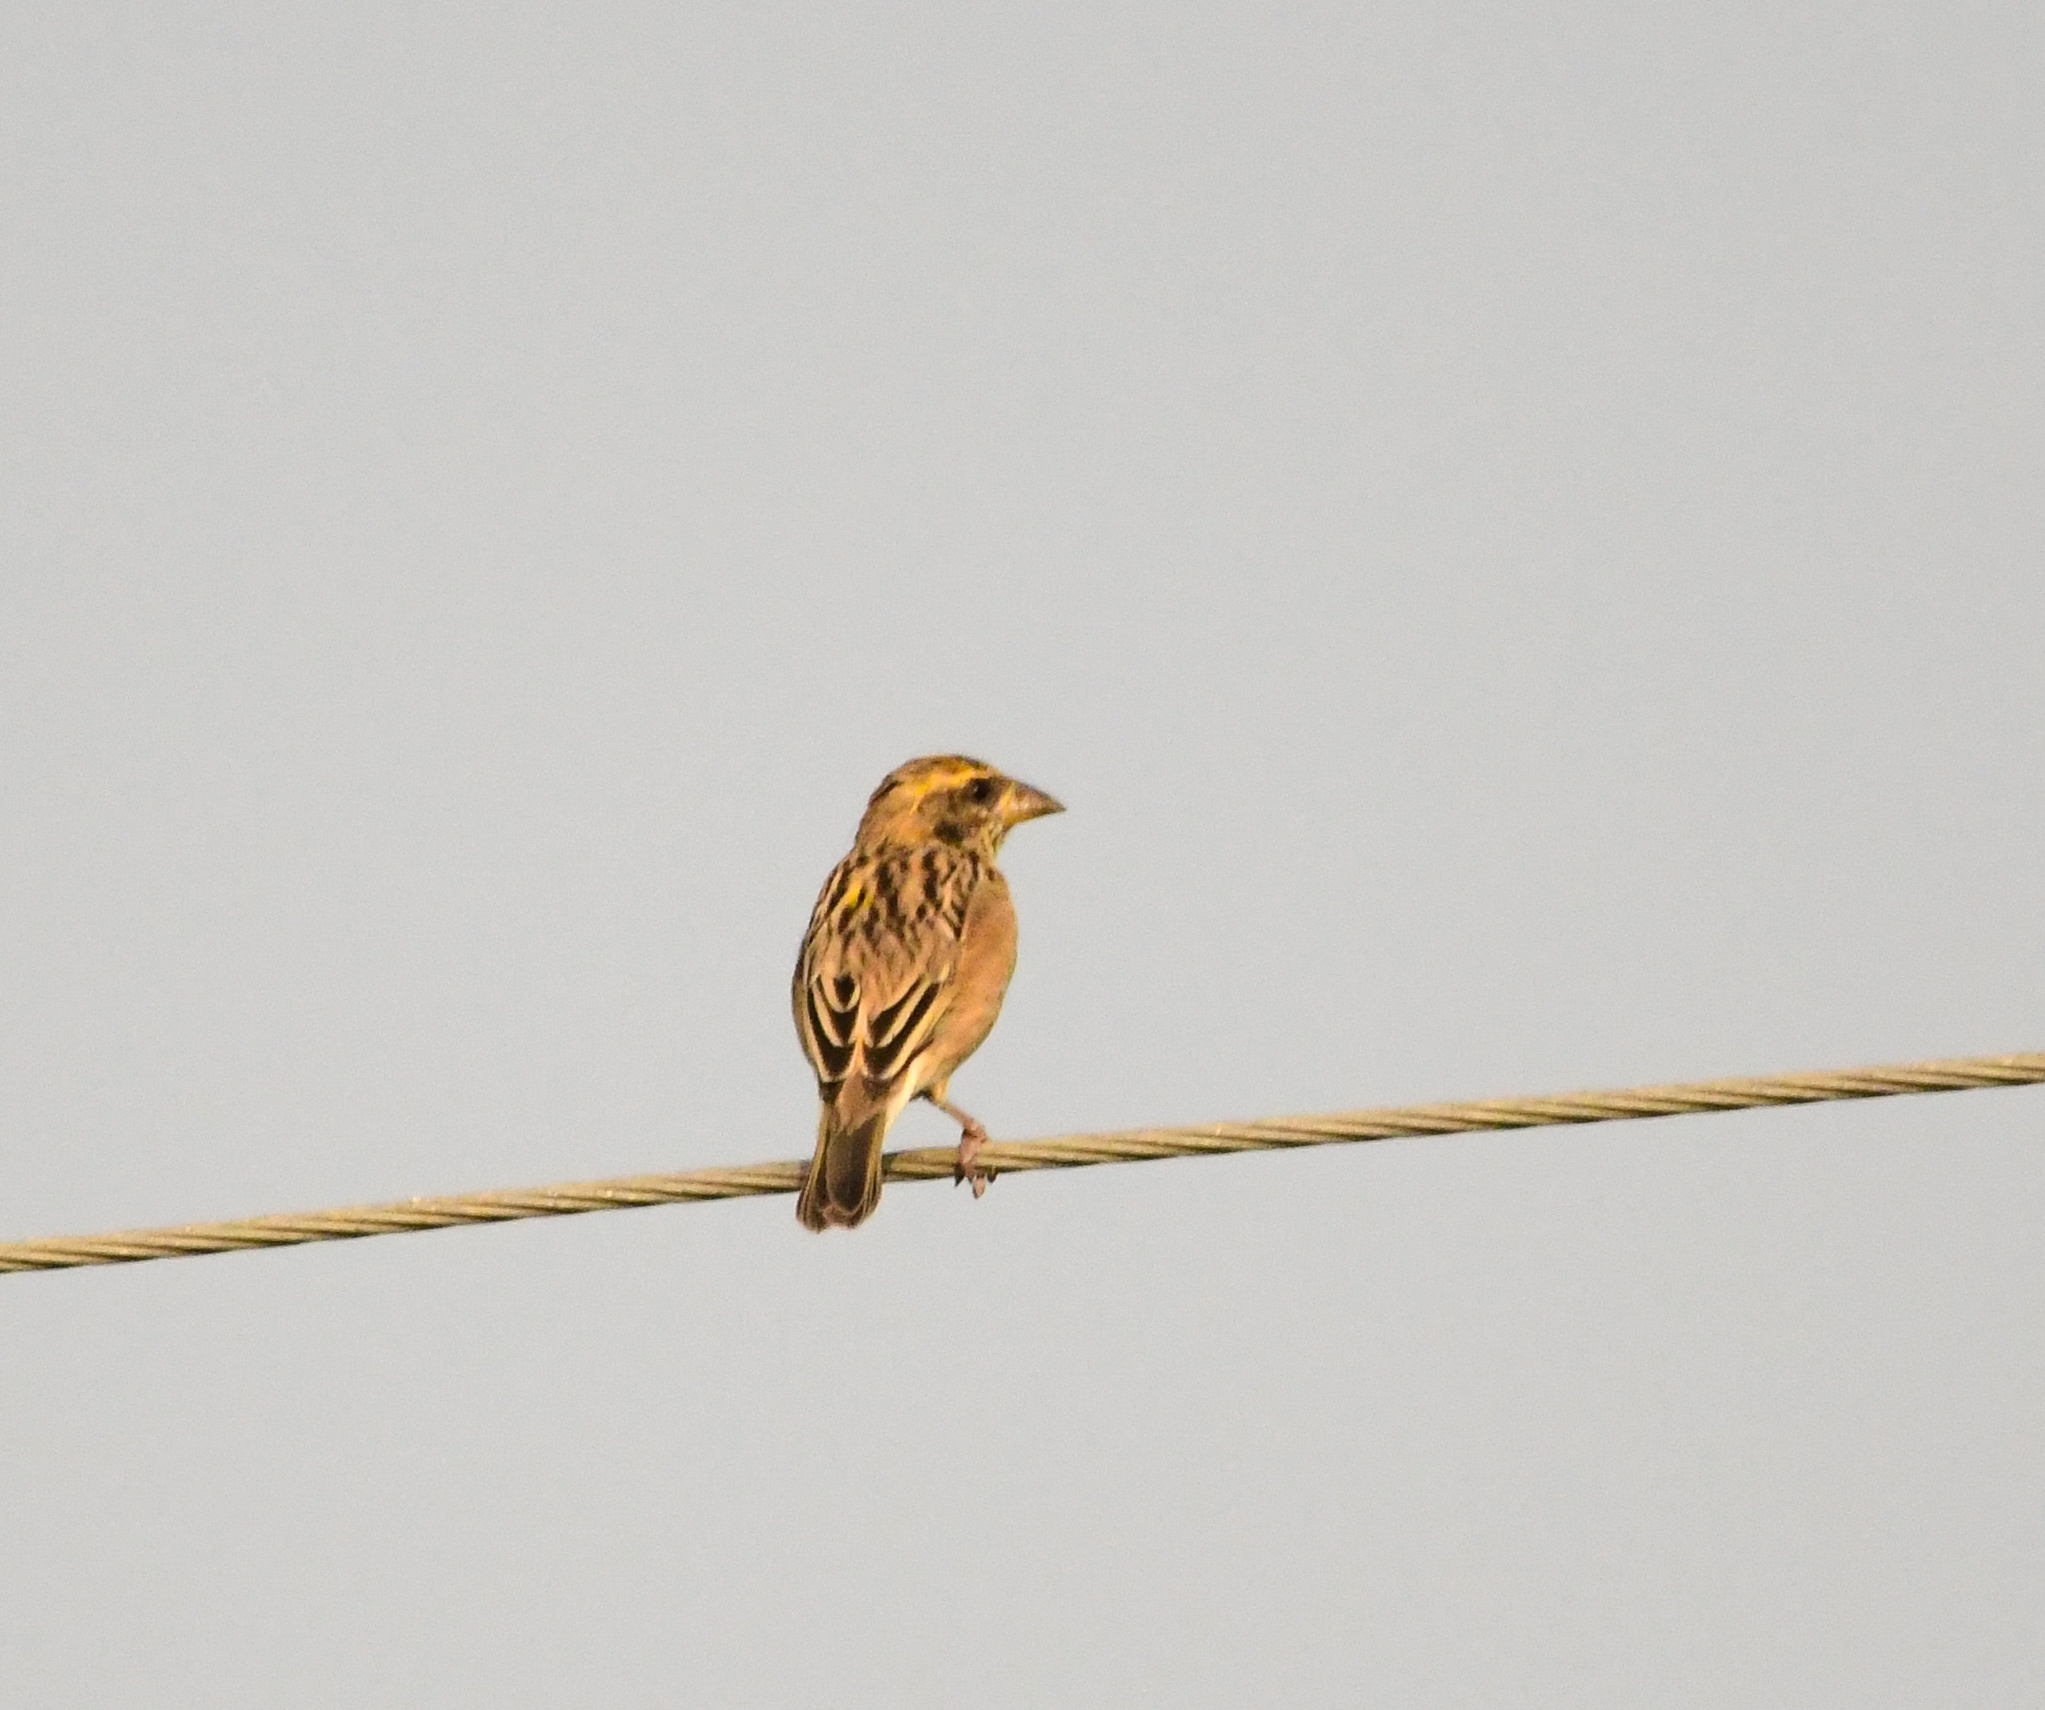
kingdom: Animalia
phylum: Chordata
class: Aves
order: Passeriformes
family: Ploceidae
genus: Ploceus
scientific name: Ploceus philippinus
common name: Baya weaver
